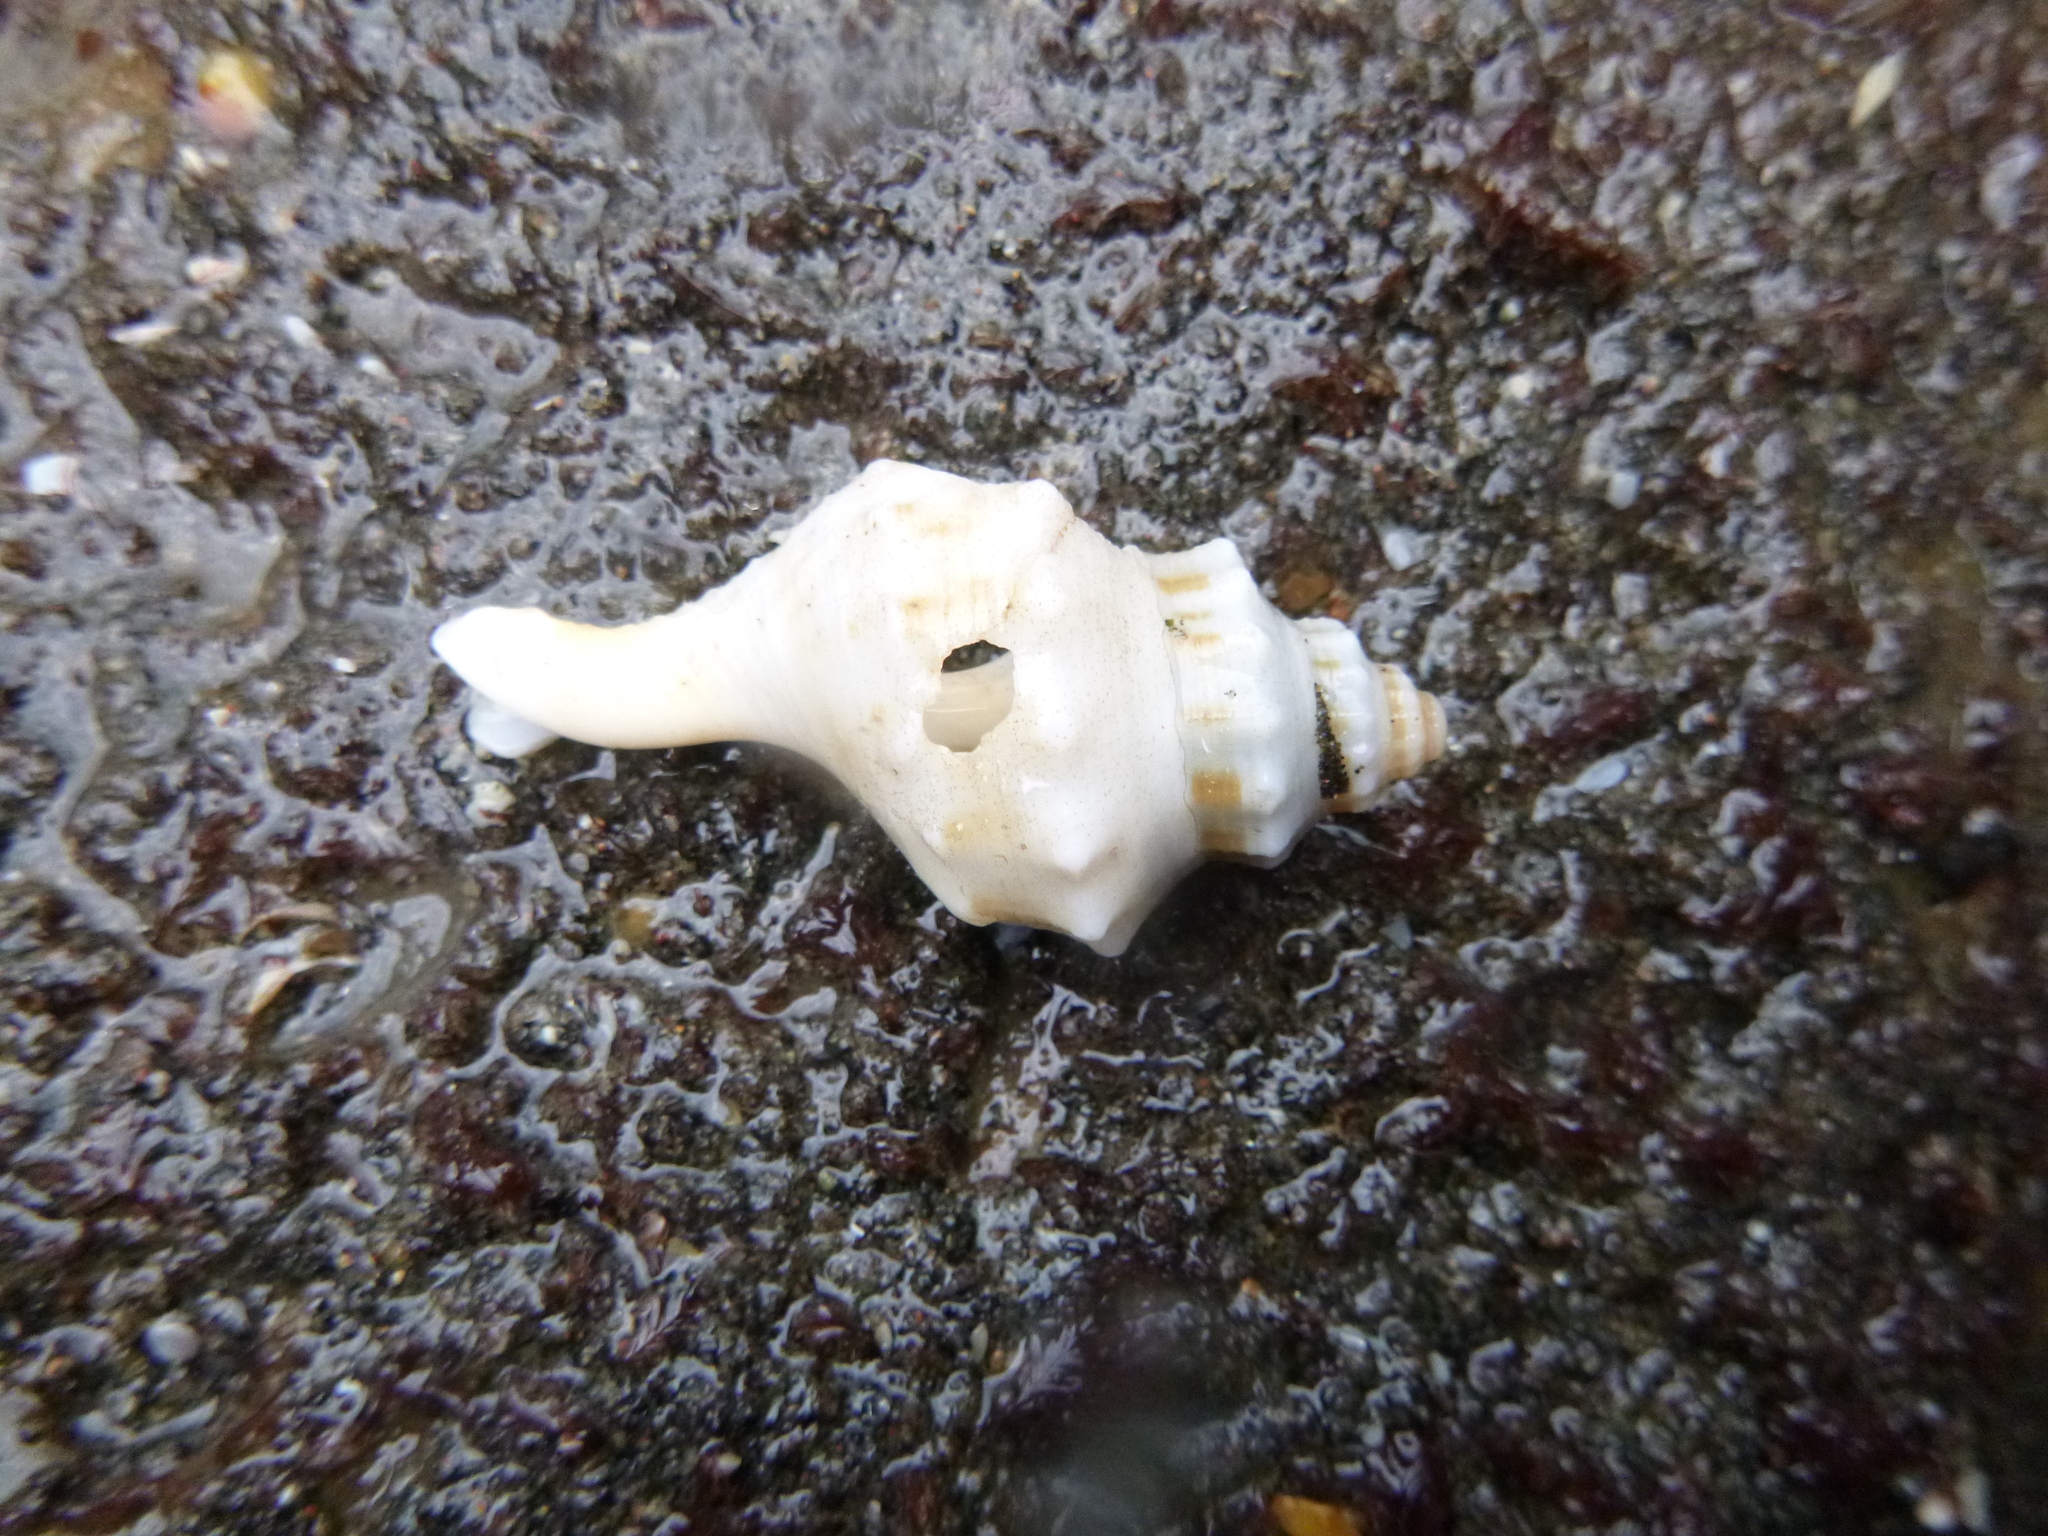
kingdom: Animalia
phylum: Mollusca
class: Gastropoda
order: Neogastropoda
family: Prosiphonidae
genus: Austrofusus
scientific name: Austrofusus glans
